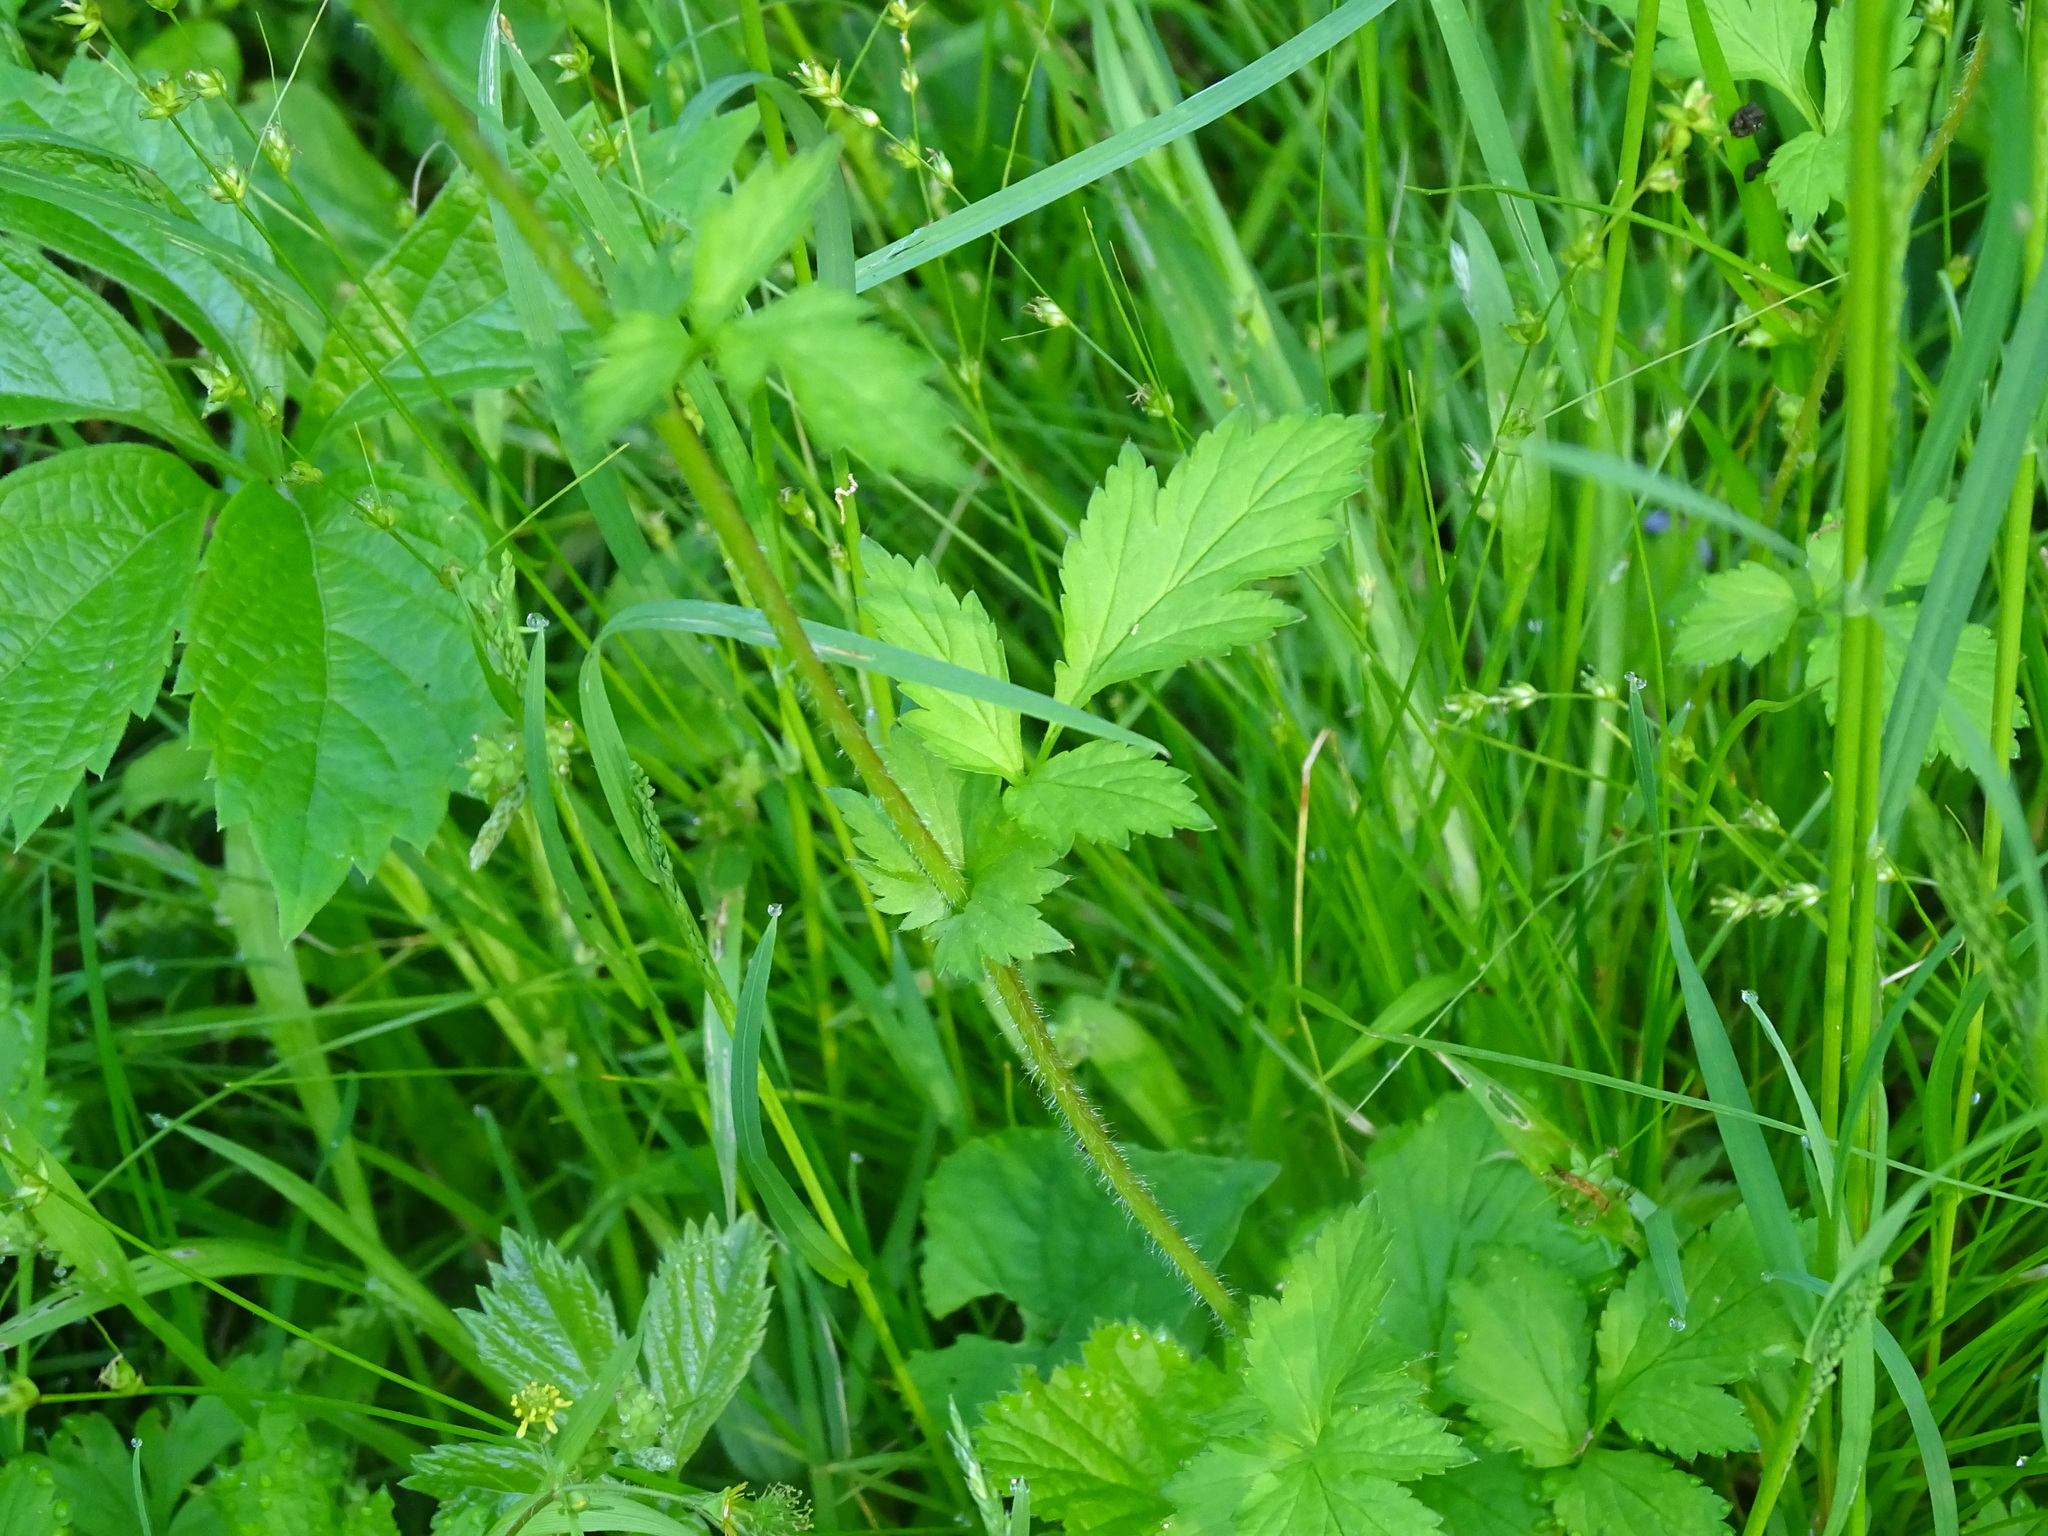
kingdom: Plantae
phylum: Tracheophyta
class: Magnoliopsida
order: Rosales
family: Rosaceae
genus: Geum
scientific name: Geum vernum
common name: Spring avens
